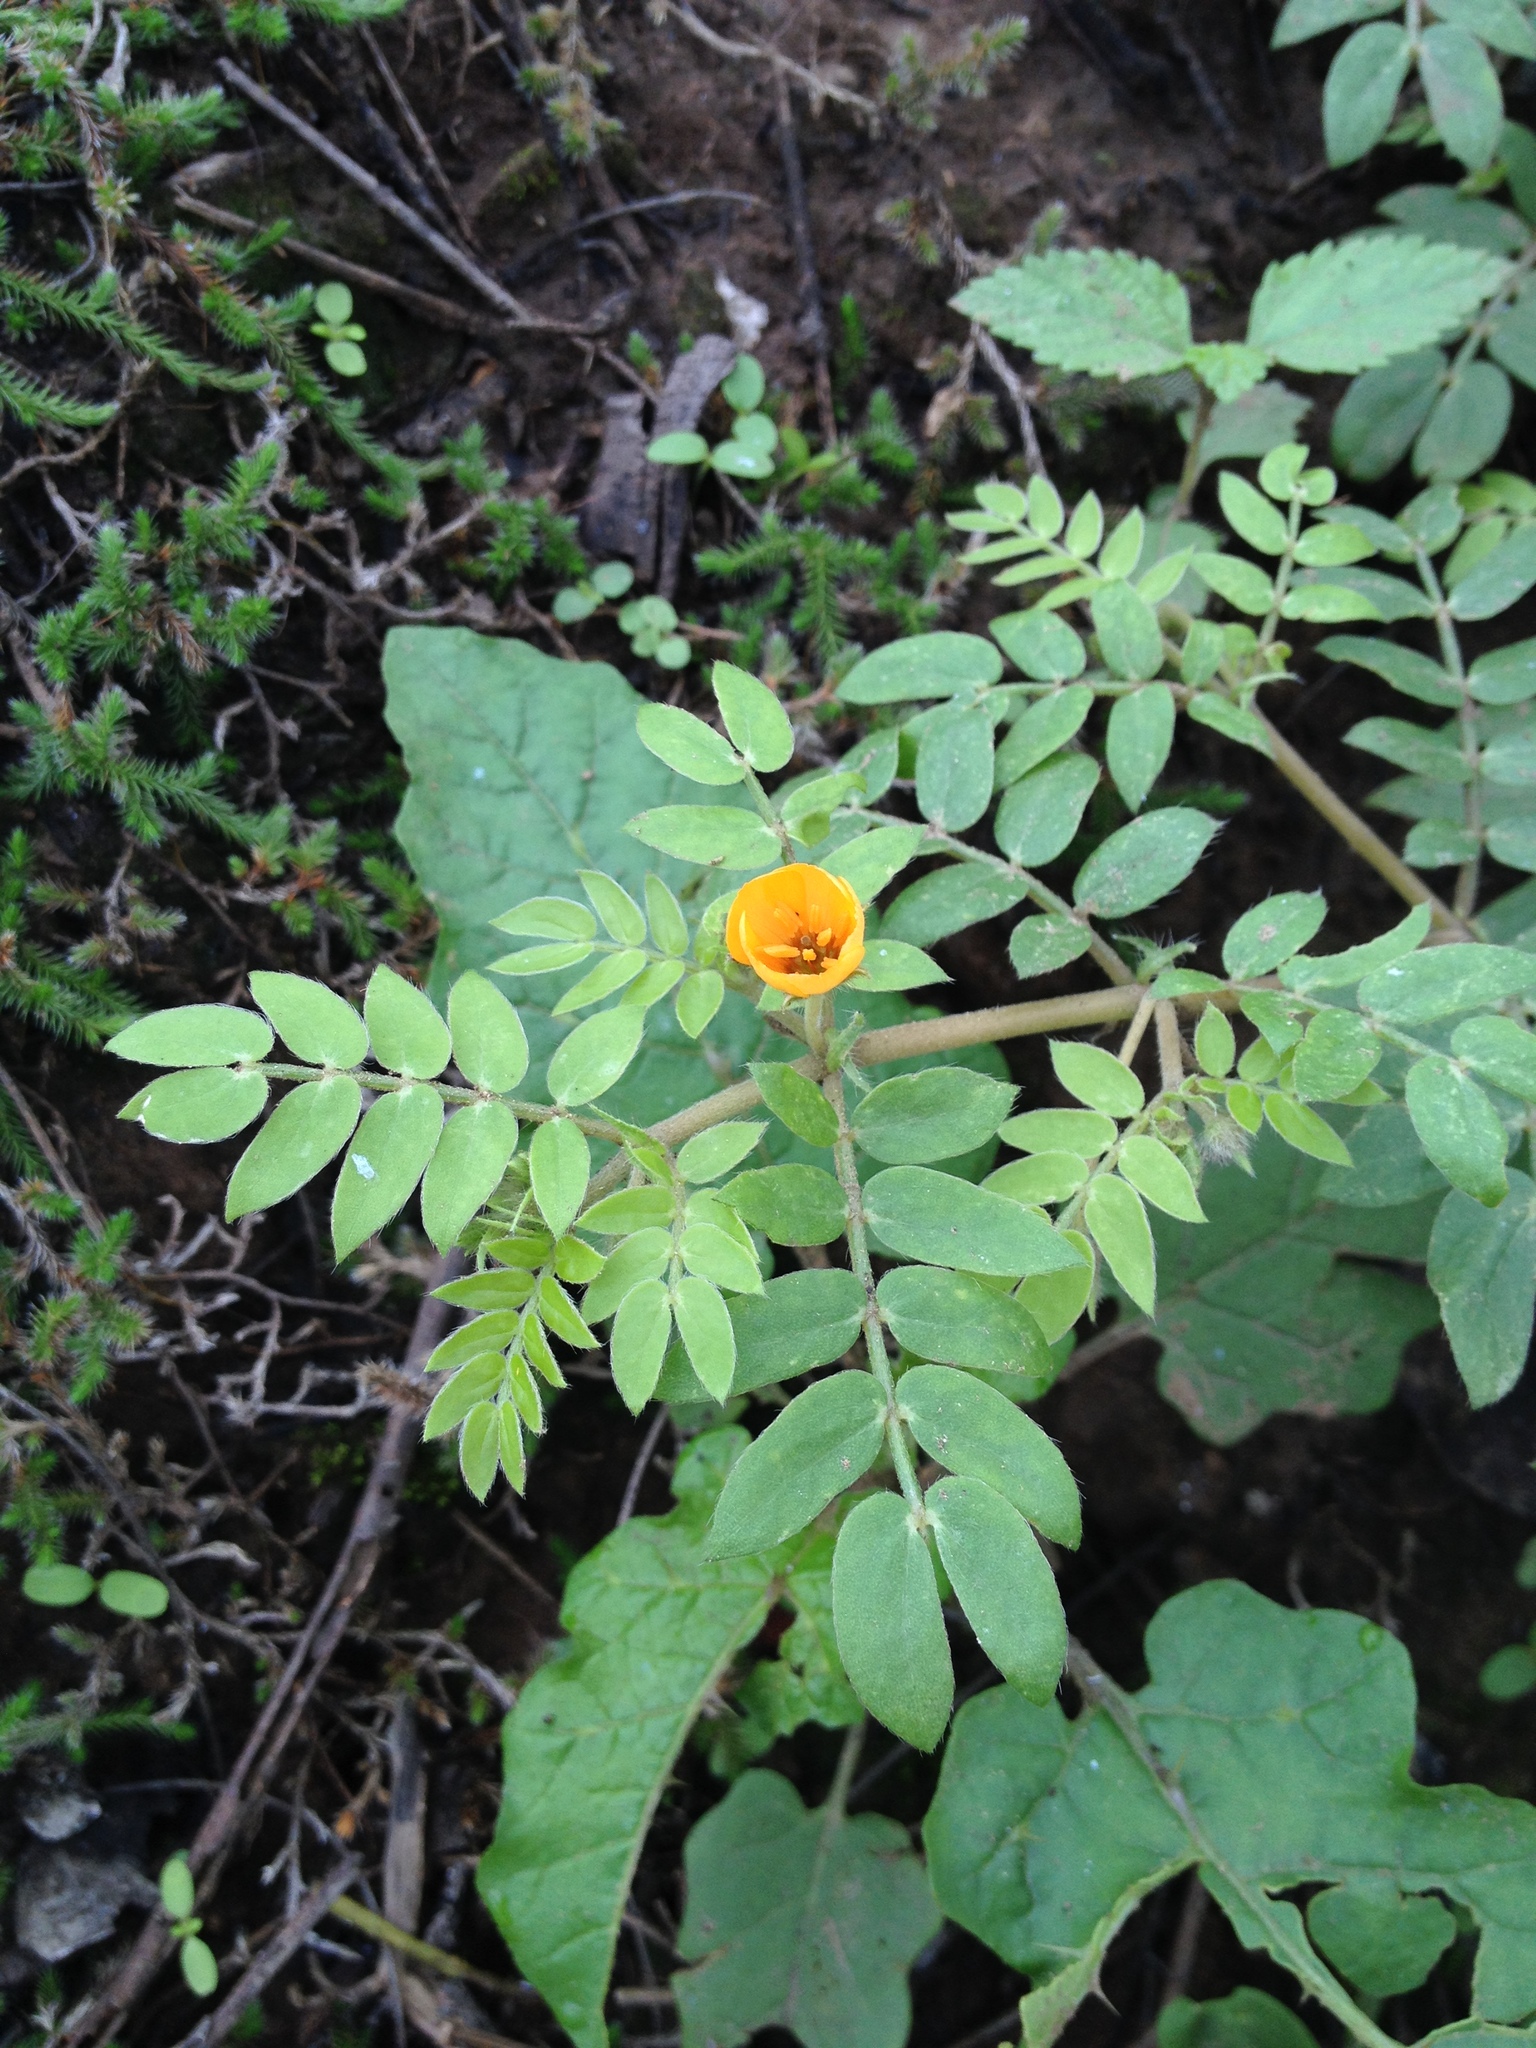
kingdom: Plantae
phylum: Tracheophyta
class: Magnoliopsida
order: Zygophyllales
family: Zygophyllaceae
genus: Kallstroemia
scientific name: Kallstroemia maxima
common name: Big caltropa
